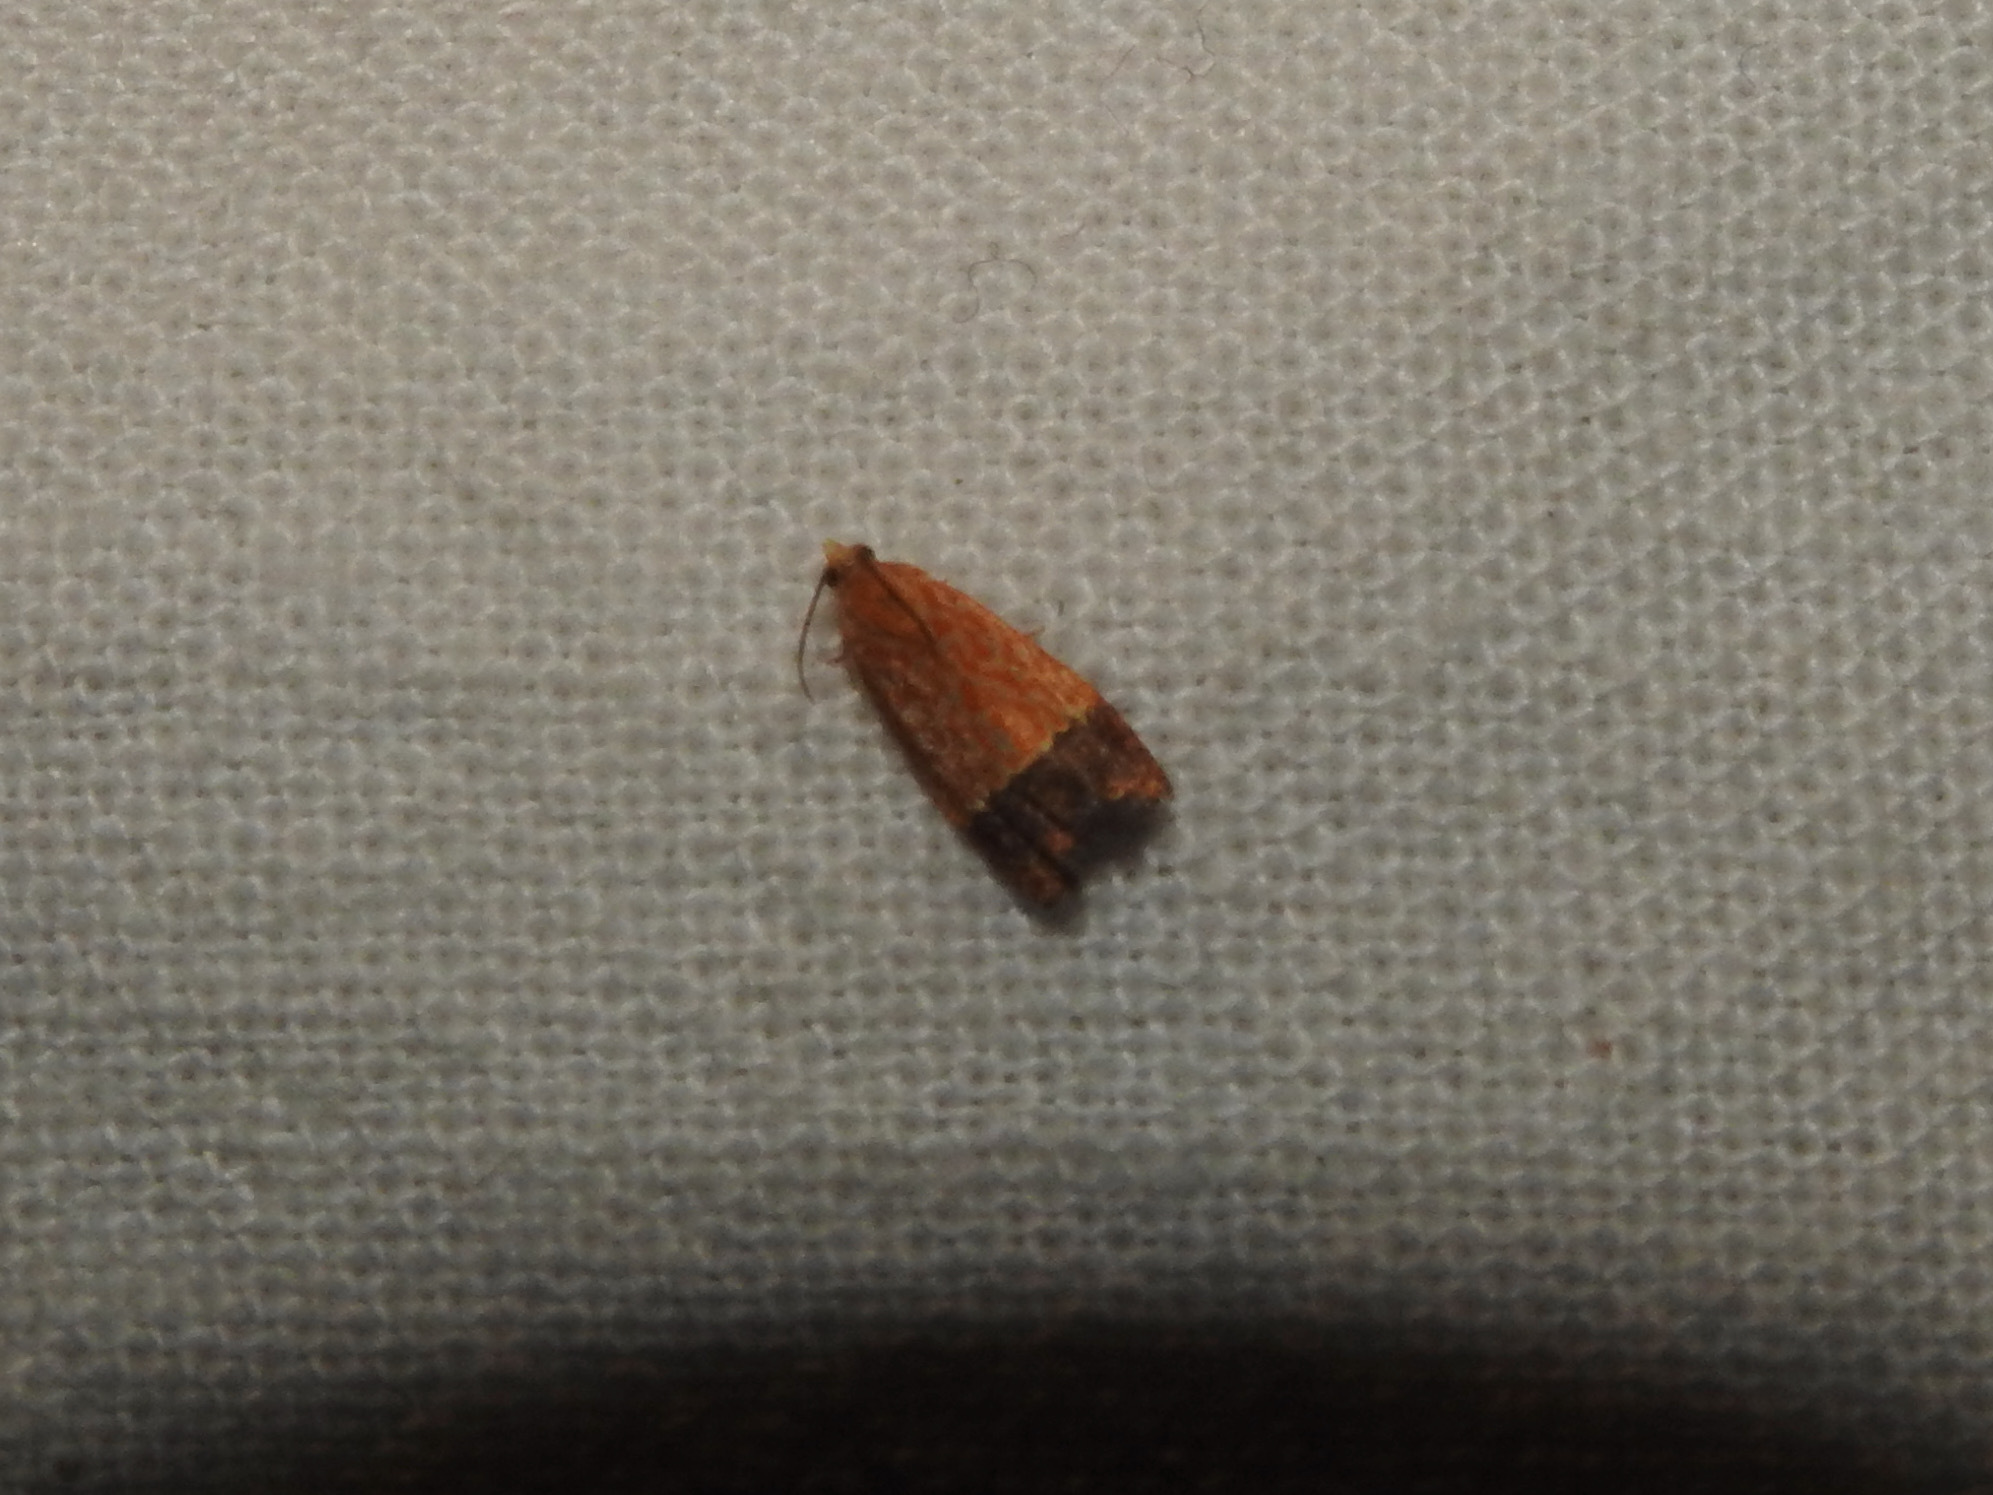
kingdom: Animalia
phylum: Arthropoda
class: Insecta
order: Lepidoptera
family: Tortricidae
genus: Loboschiza
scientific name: Loboschiza koenigiana
